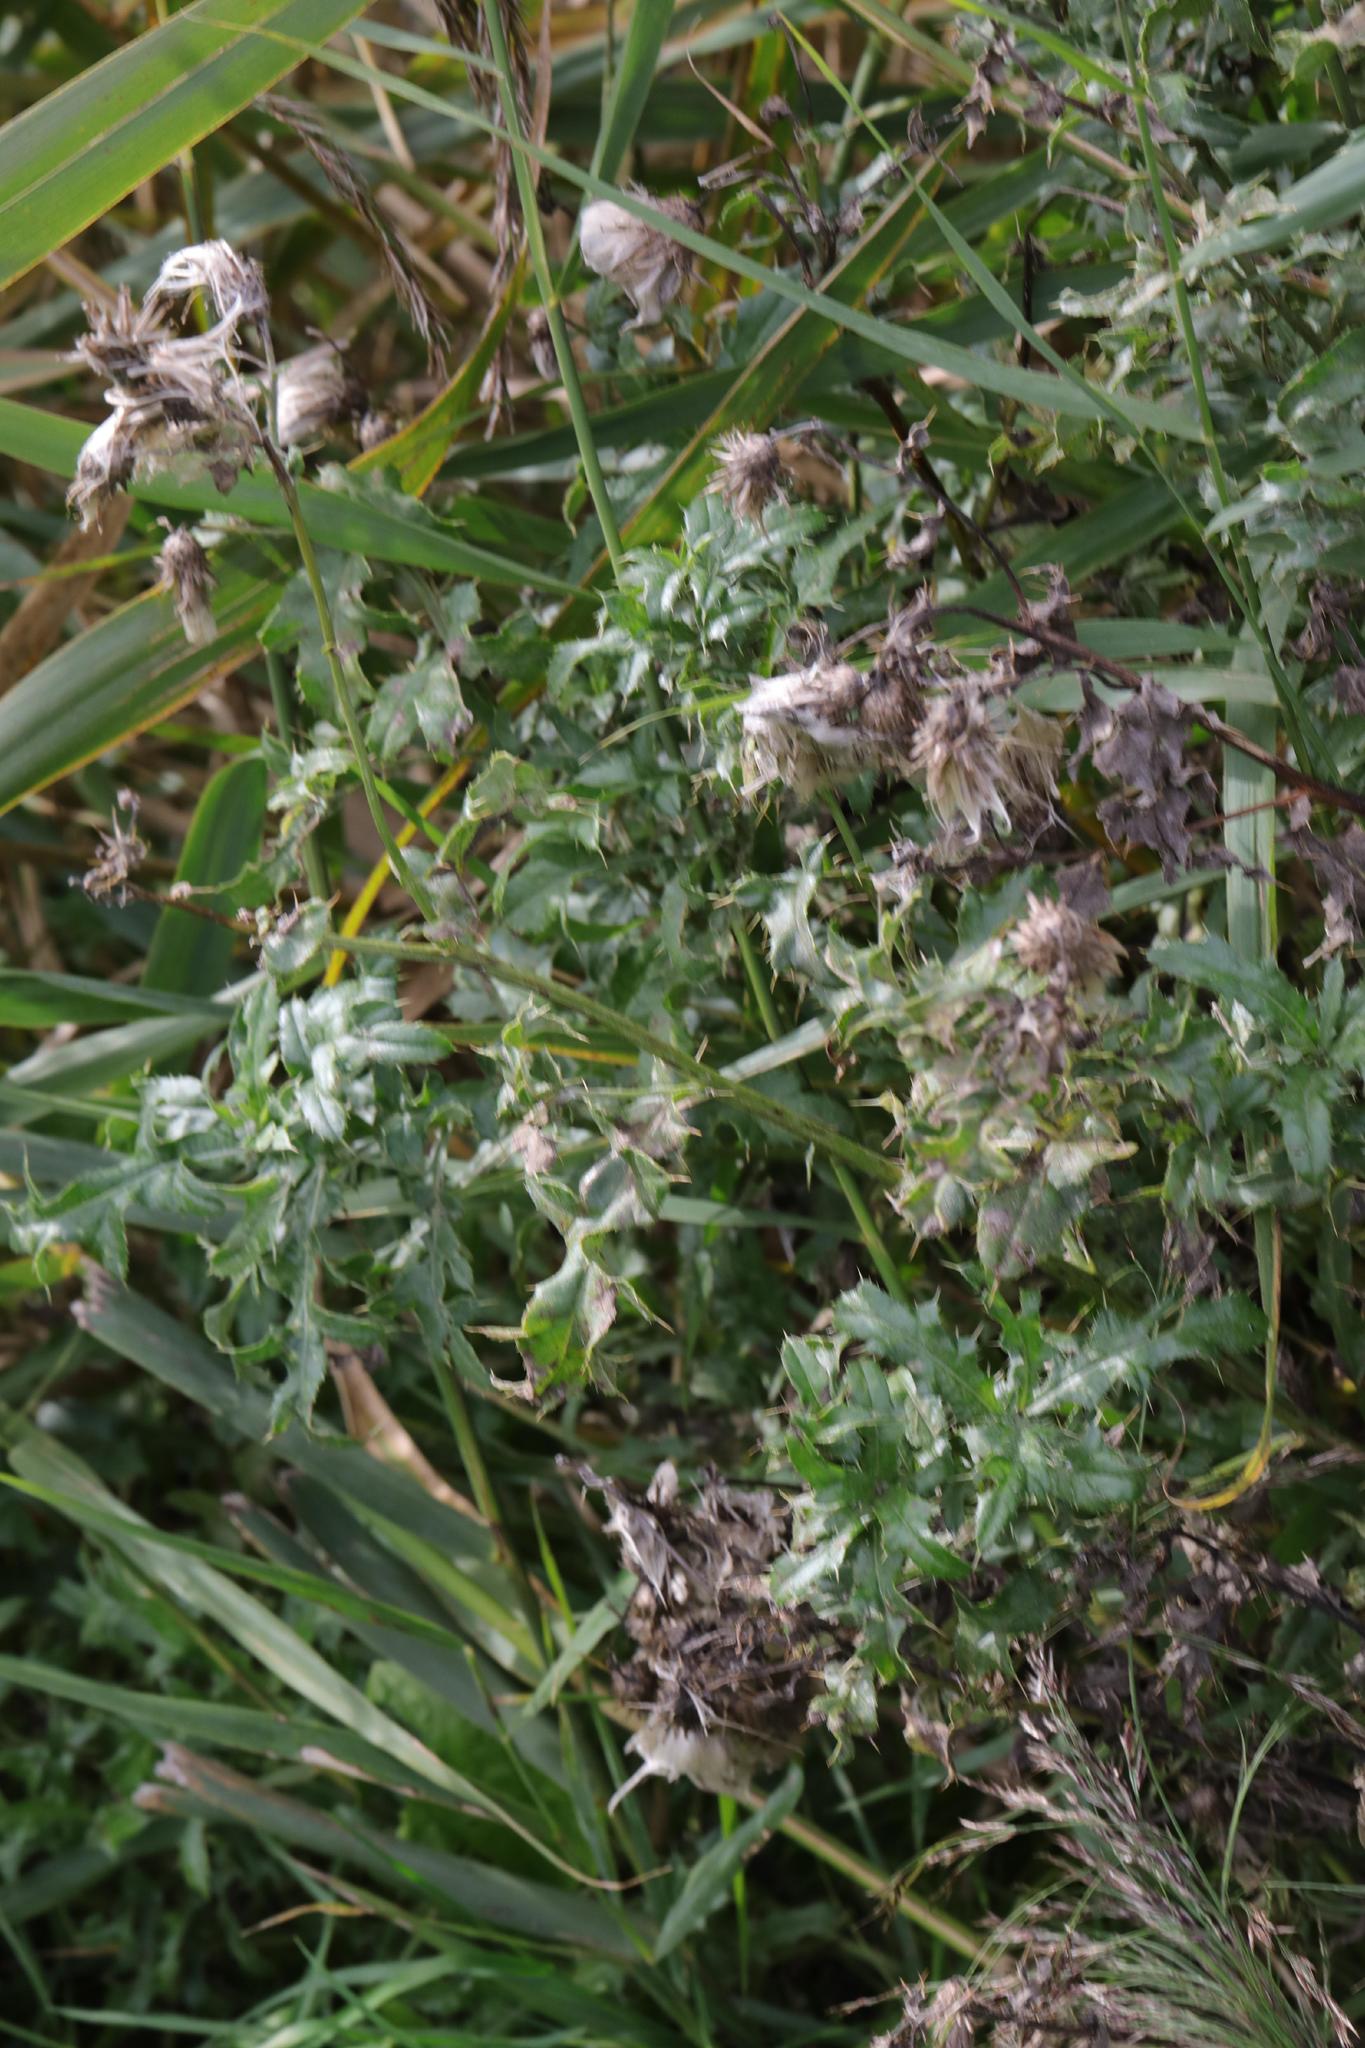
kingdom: Plantae
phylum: Tracheophyta
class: Magnoliopsida
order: Asterales
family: Asteraceae
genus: Cirsium
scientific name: Cirsium arvense
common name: Creeping thistle
